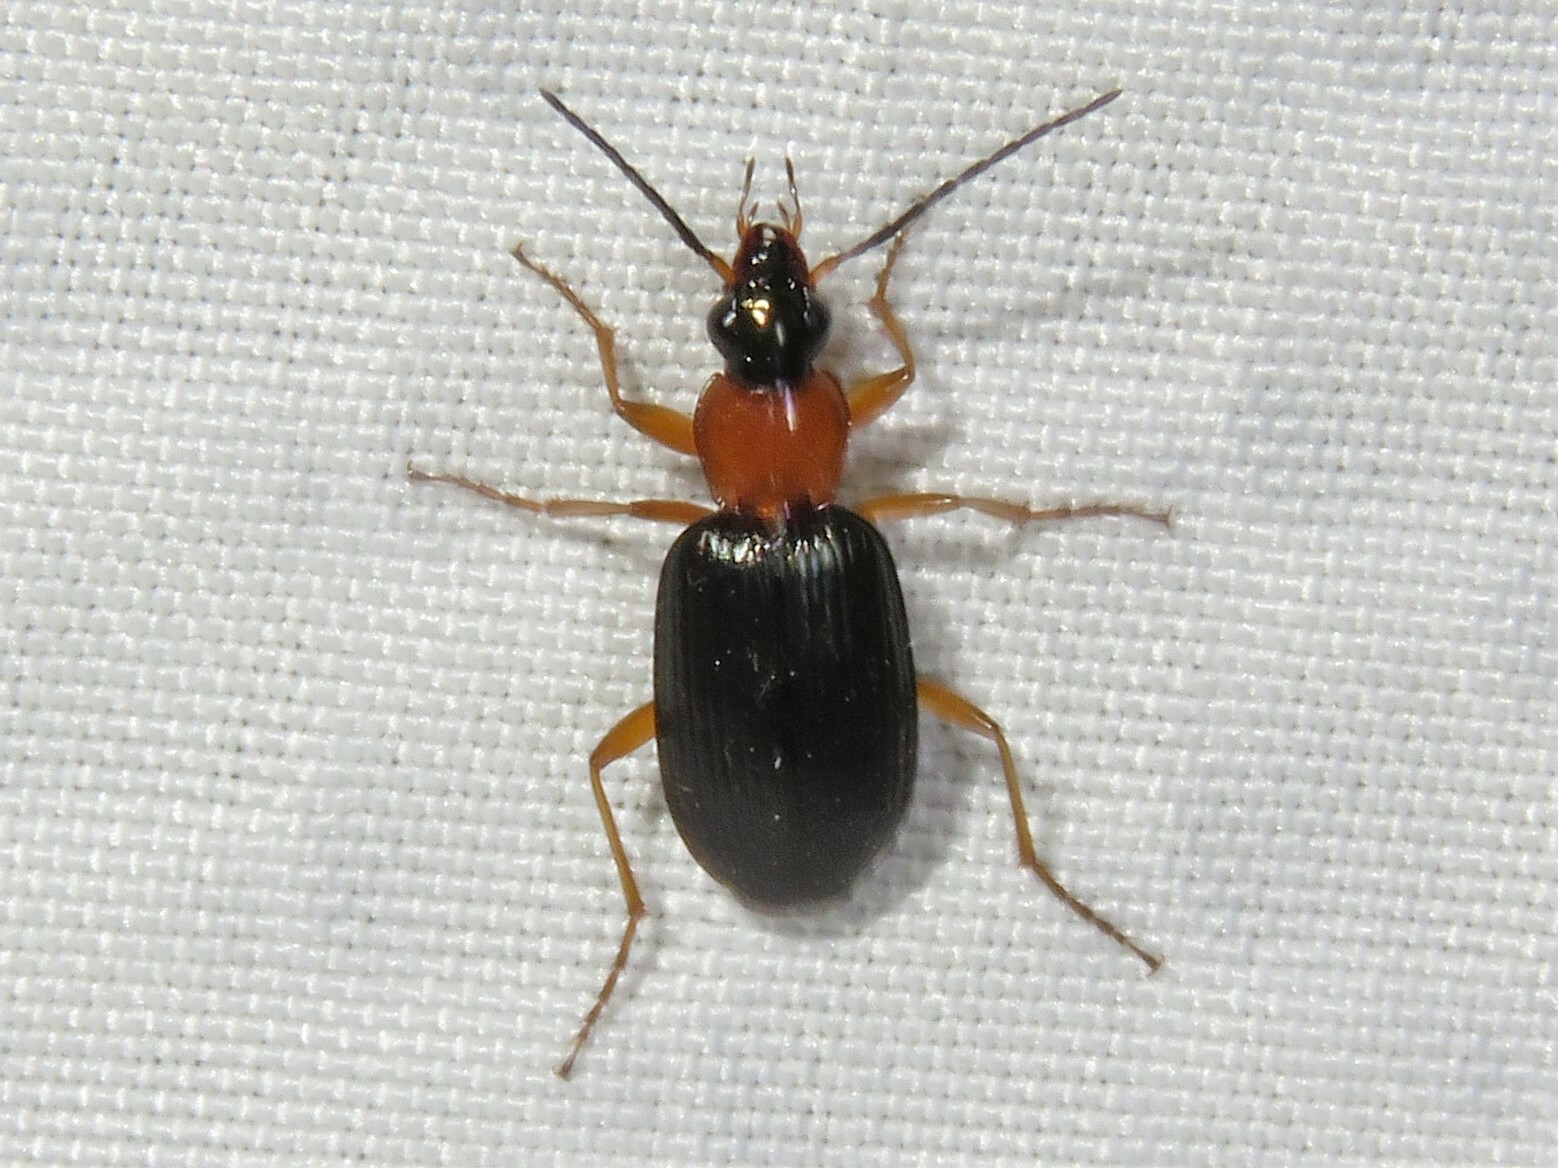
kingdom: Animalia
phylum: Arthropoda
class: Insecta
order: Coleoptera
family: Carabidae
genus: Agonum
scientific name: Agonum decorum
